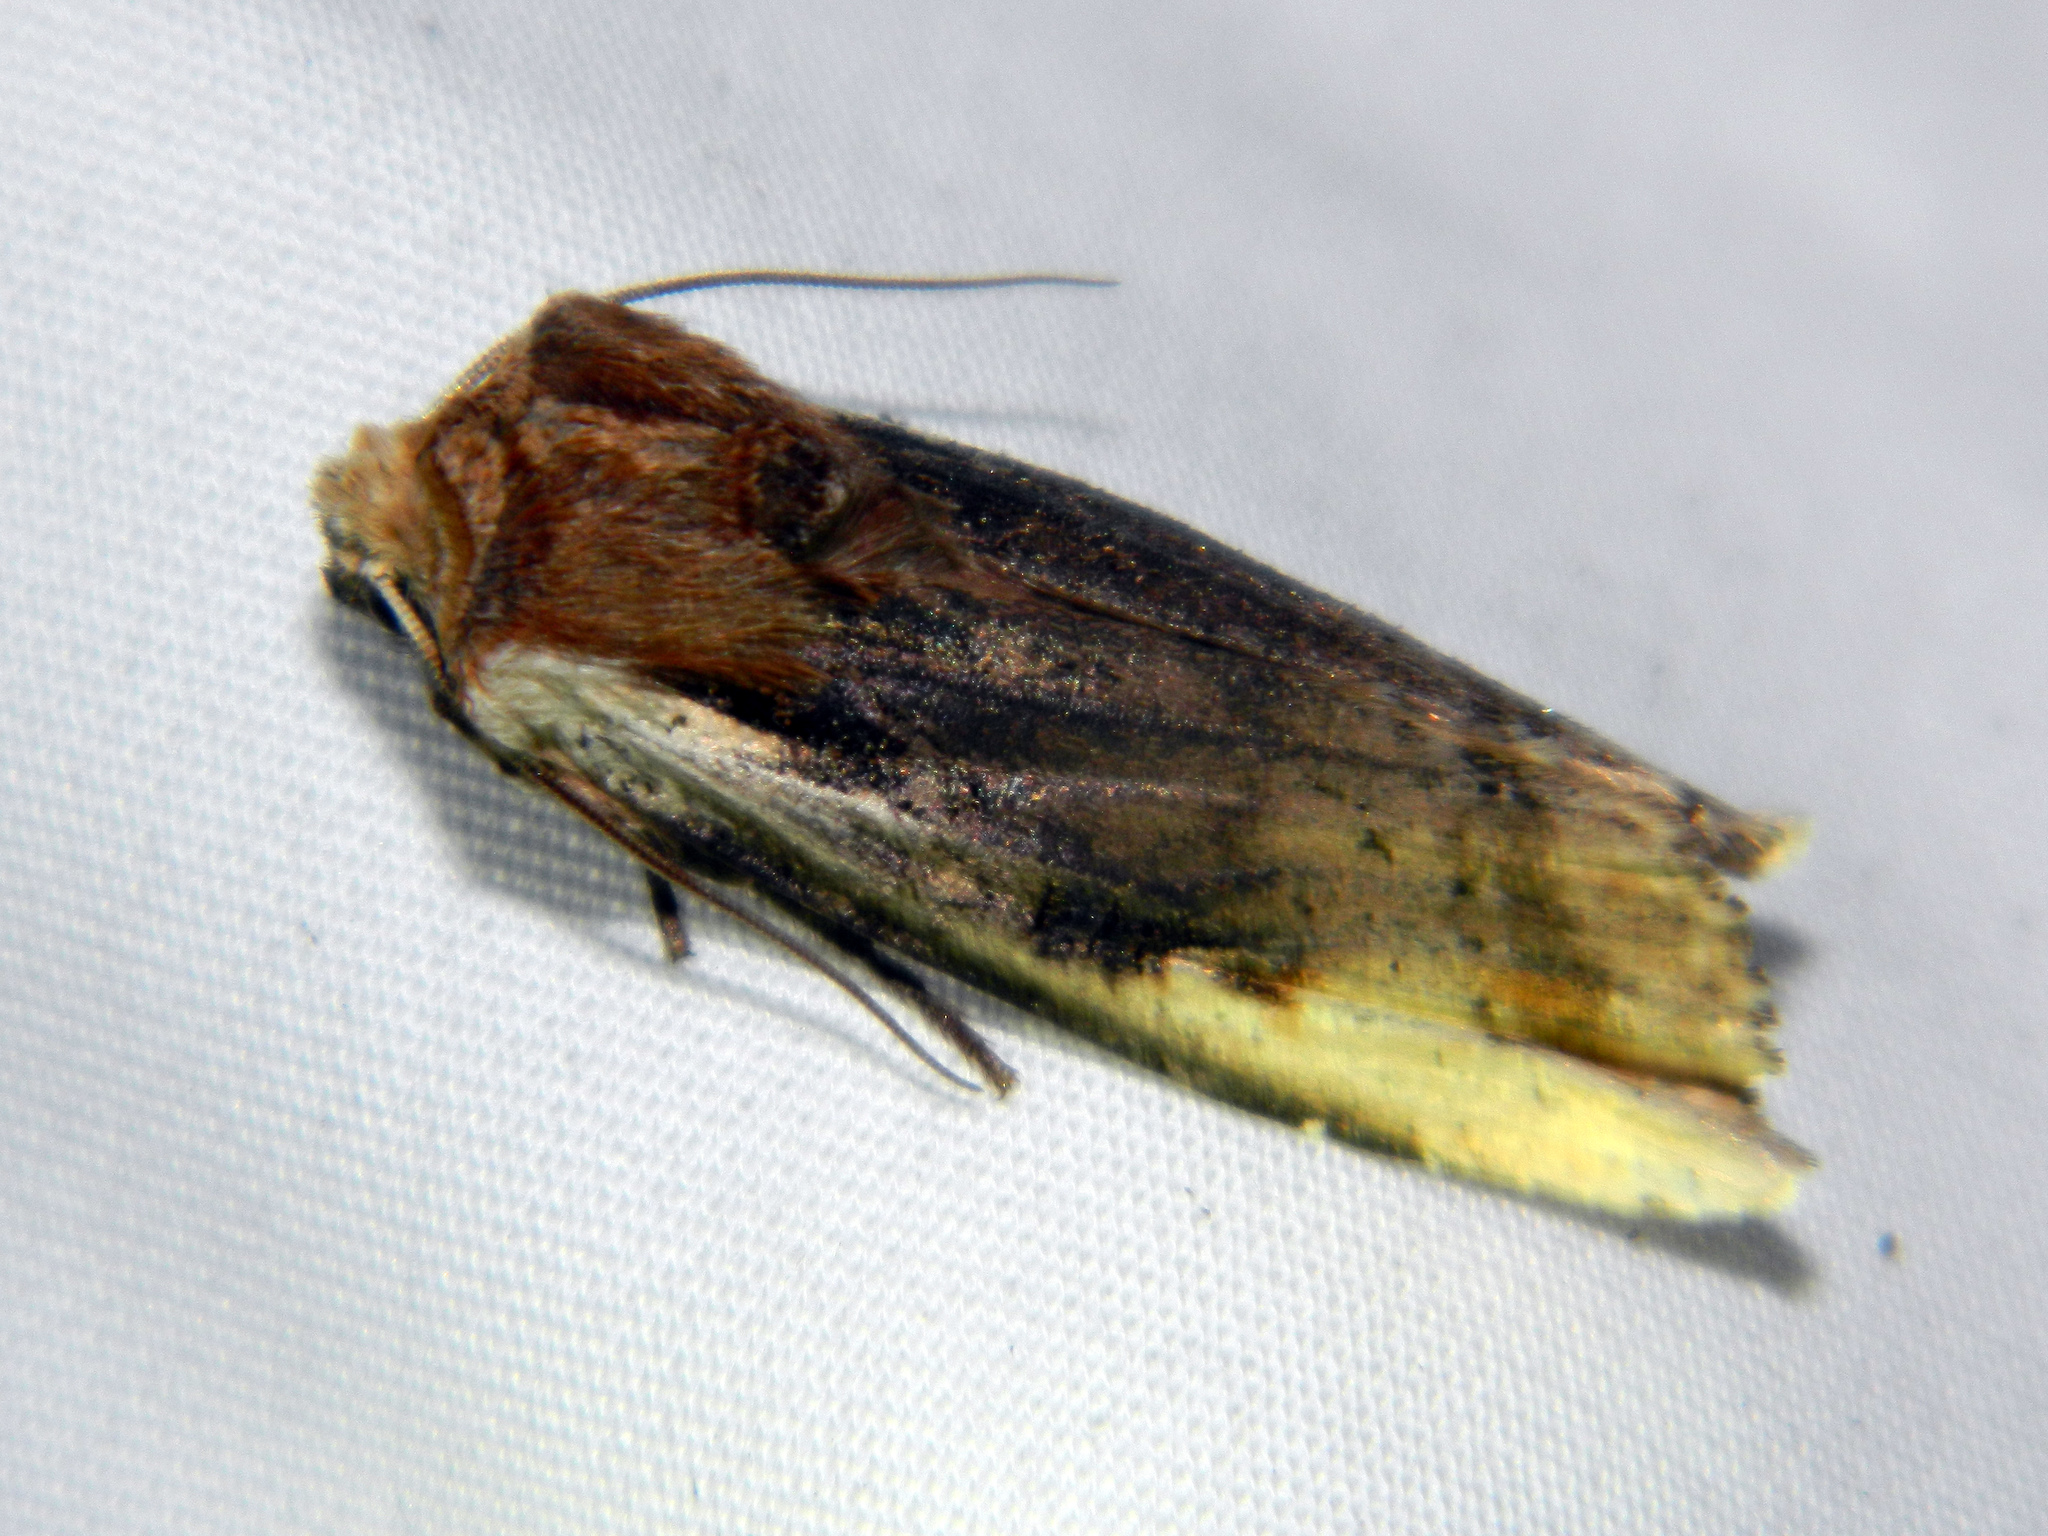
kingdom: Animalia
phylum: Arthropoda
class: Insecta
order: Lepidoptera
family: Noctuidae
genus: Xylena
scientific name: Xylena curvimacula
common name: Dot-and-dash swordgrass moth
